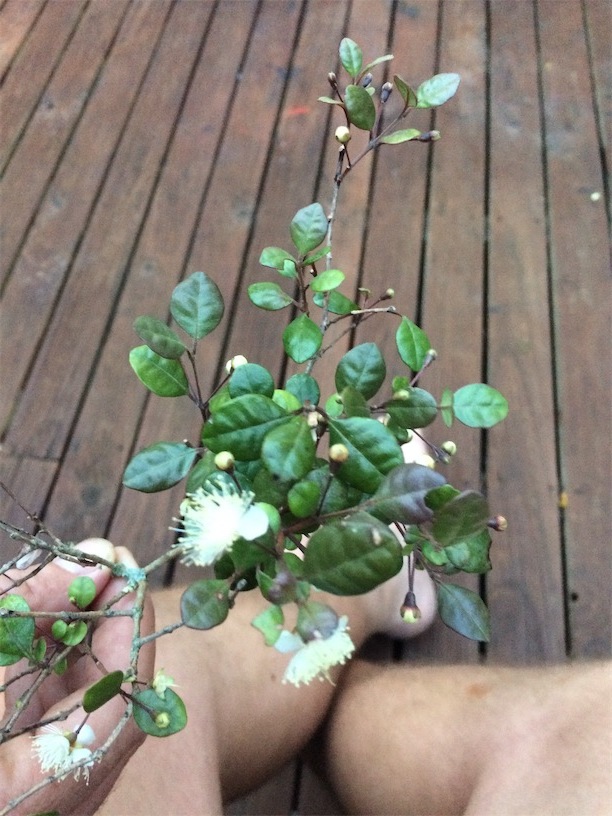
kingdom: Plantae
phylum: Tracheophyta
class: Magnoliopsida
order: Myrtales
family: Myrtaceae
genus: Lophomyrtus
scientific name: Lophomyrtus bullata
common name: Rama rama
